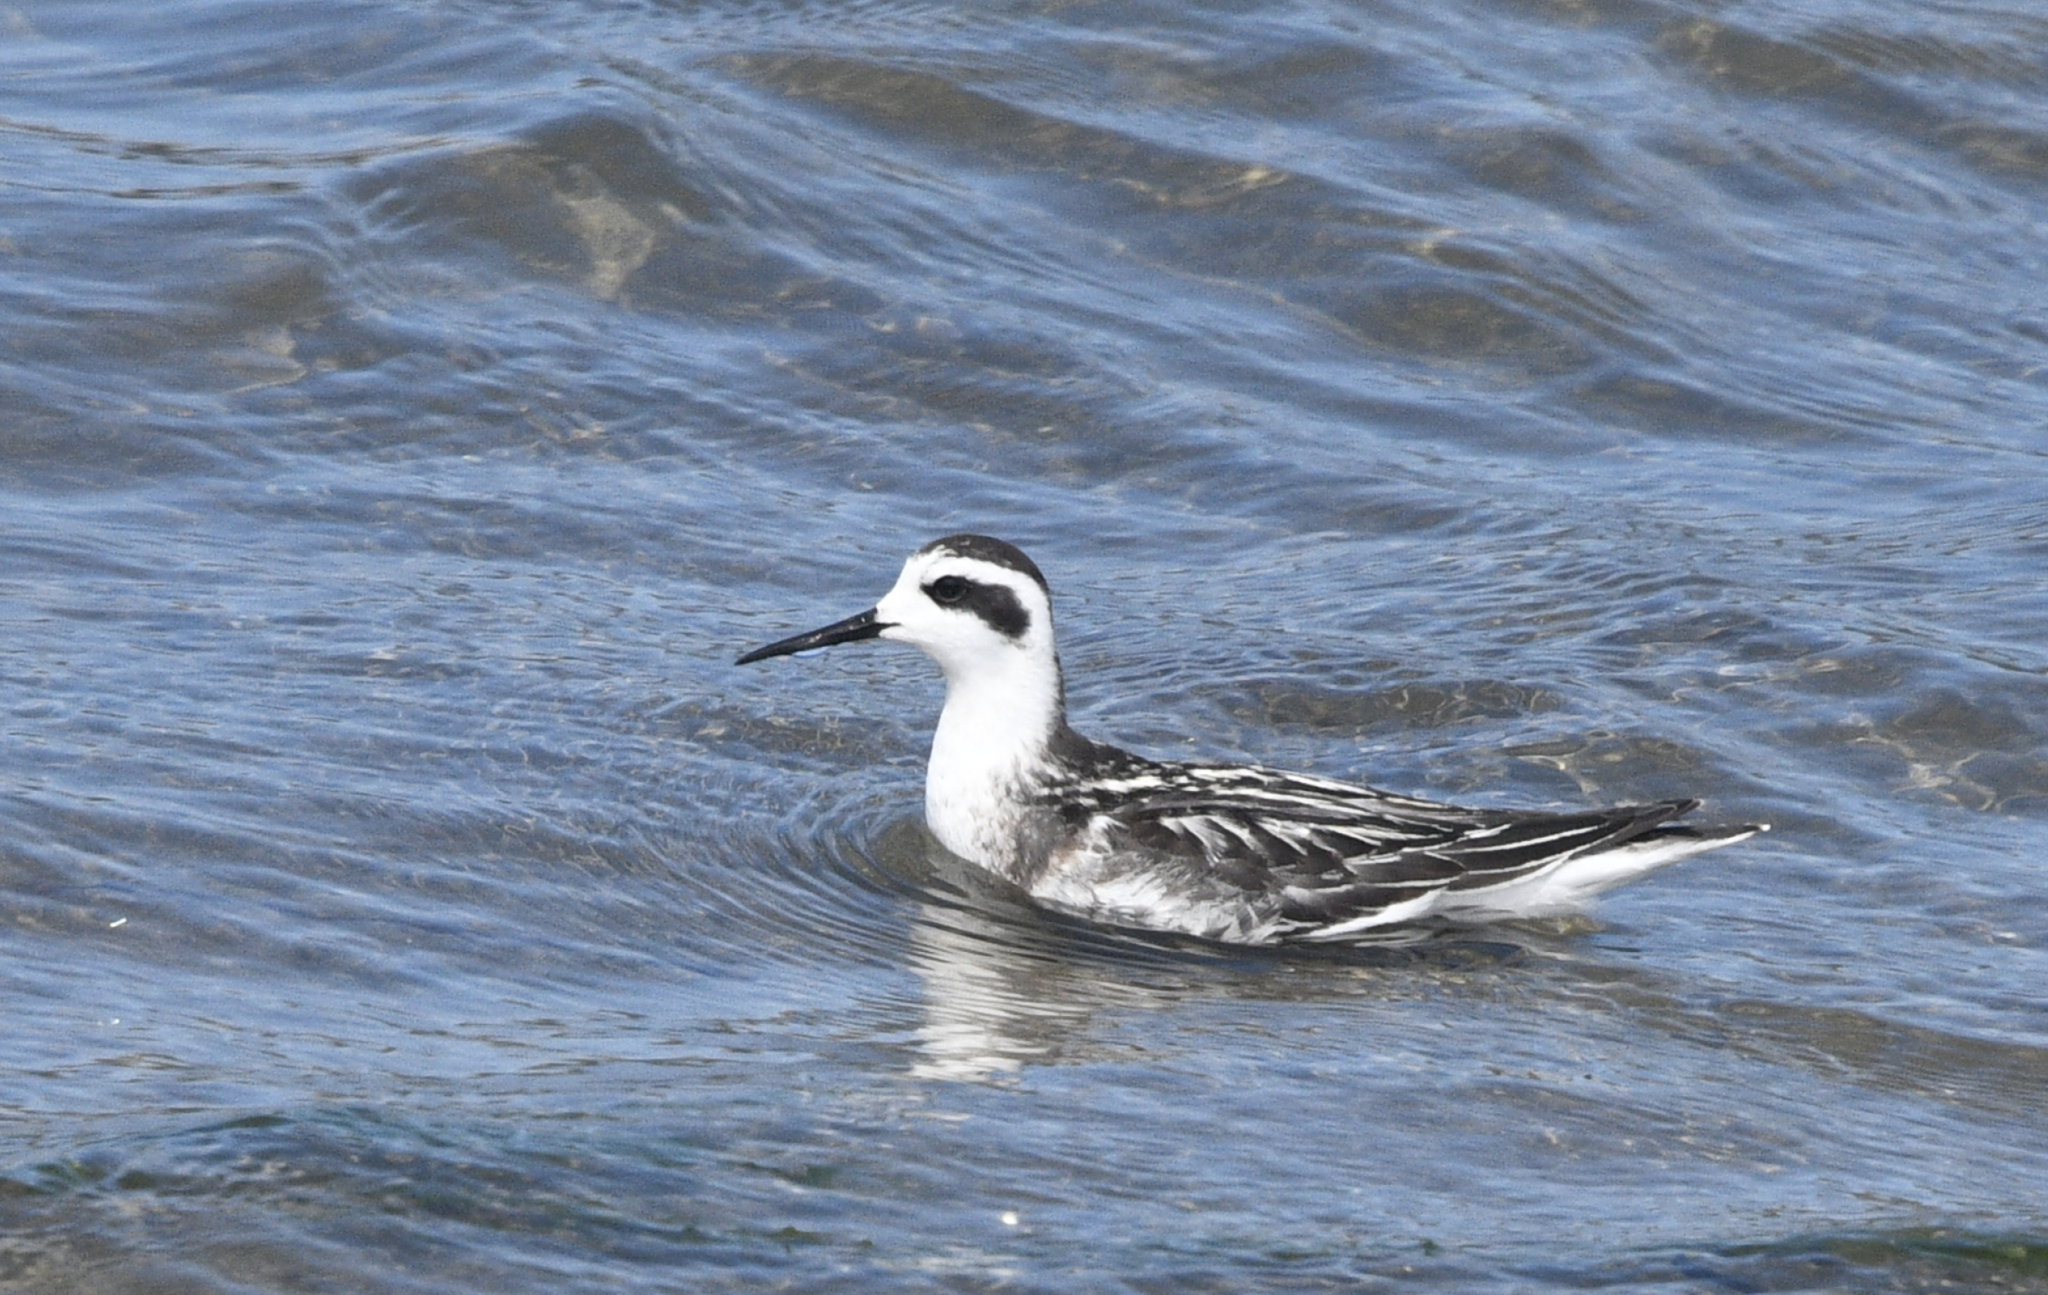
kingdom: Animalia
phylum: Chordata
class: Aves
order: Charadriiformes
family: Scolopacidae
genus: Phalaropus
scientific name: Phalaropus lobatus
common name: Red-necked phalarope
